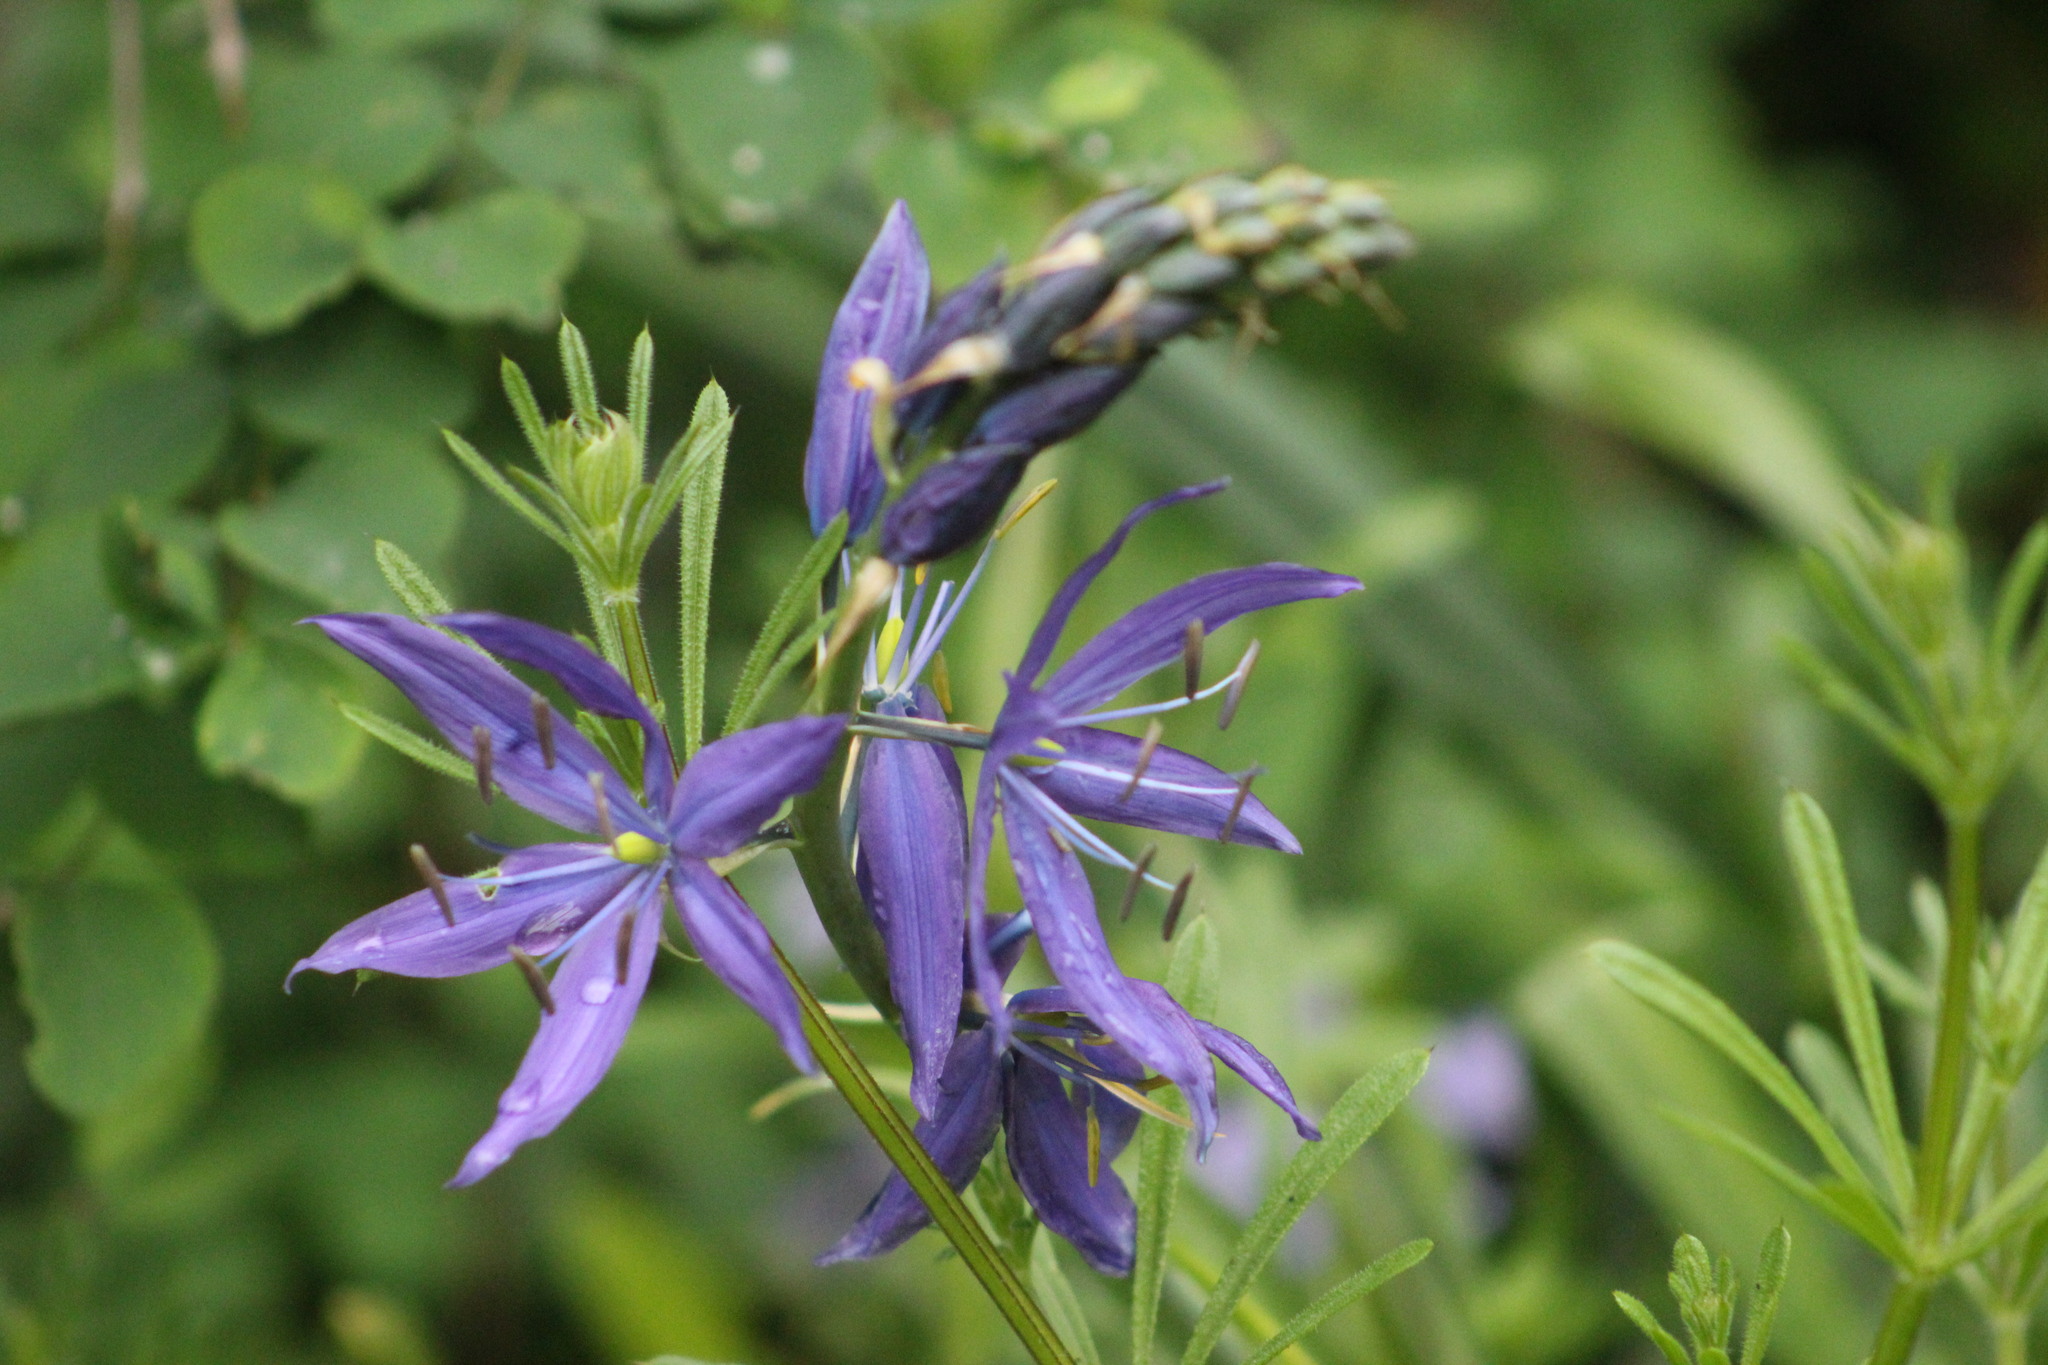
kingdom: Plantae
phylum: Tracheophyta
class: Liliopsida
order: Asparagales
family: Asparagaceae
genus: Camassia
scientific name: Camassia leichtlinii
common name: Leichtlin's camas
